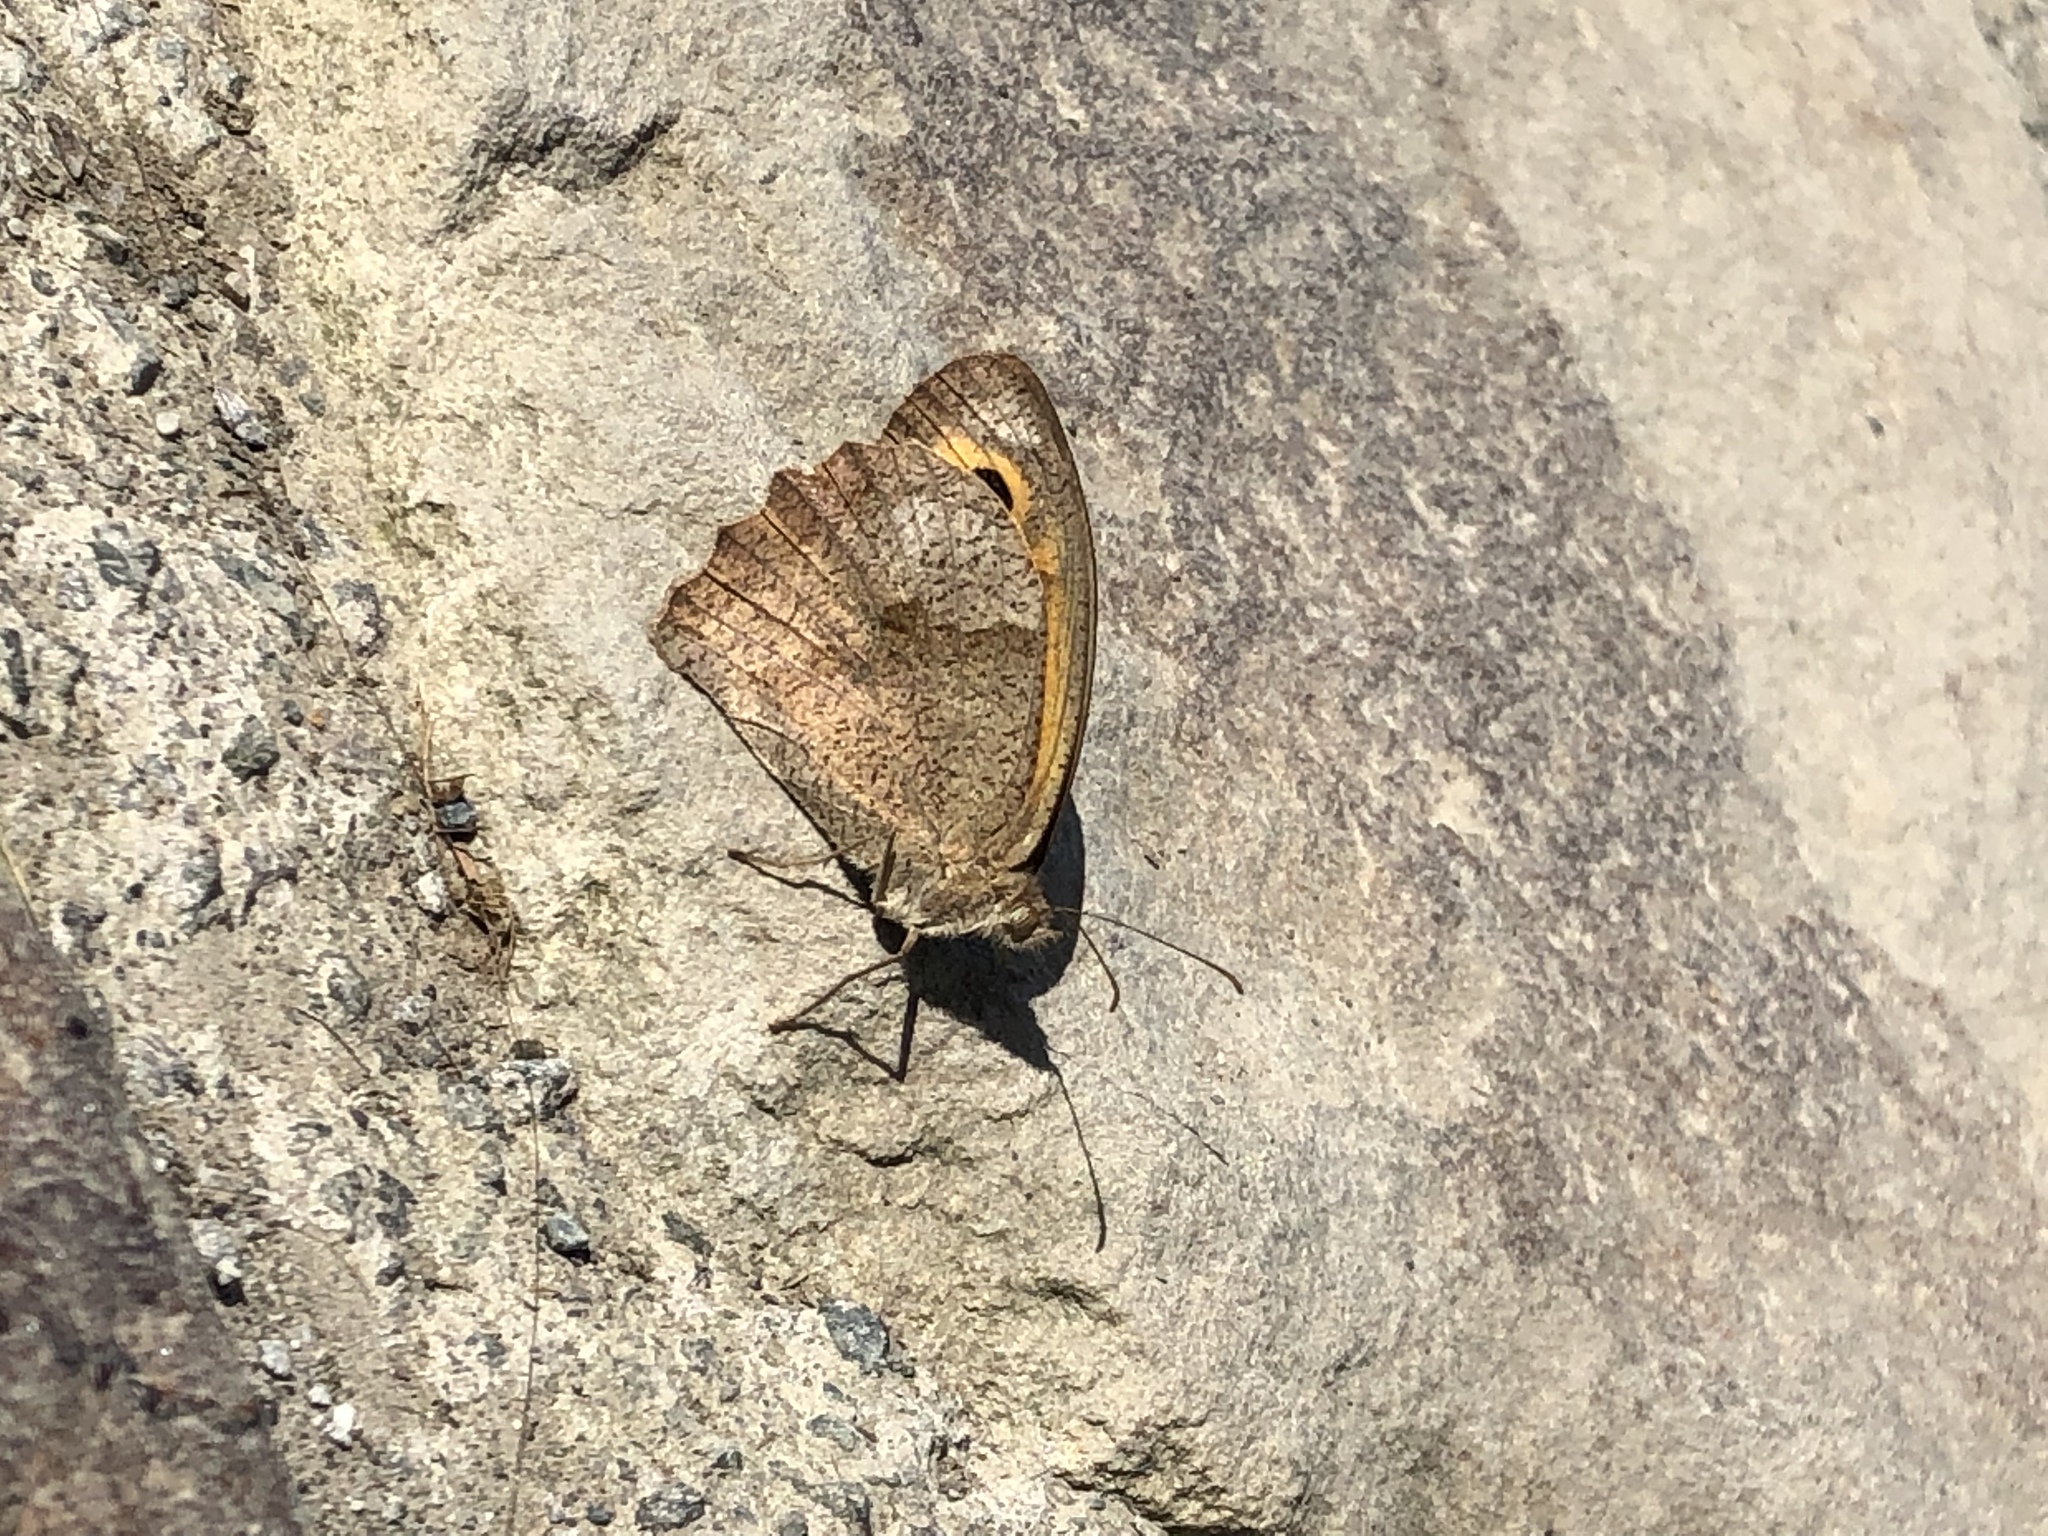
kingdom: Animalia
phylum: Arthropoda
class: Insecta
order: Lepidoptera
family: Nymphalidae
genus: Maniola
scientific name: Maniola jurtina
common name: Meadow brown
